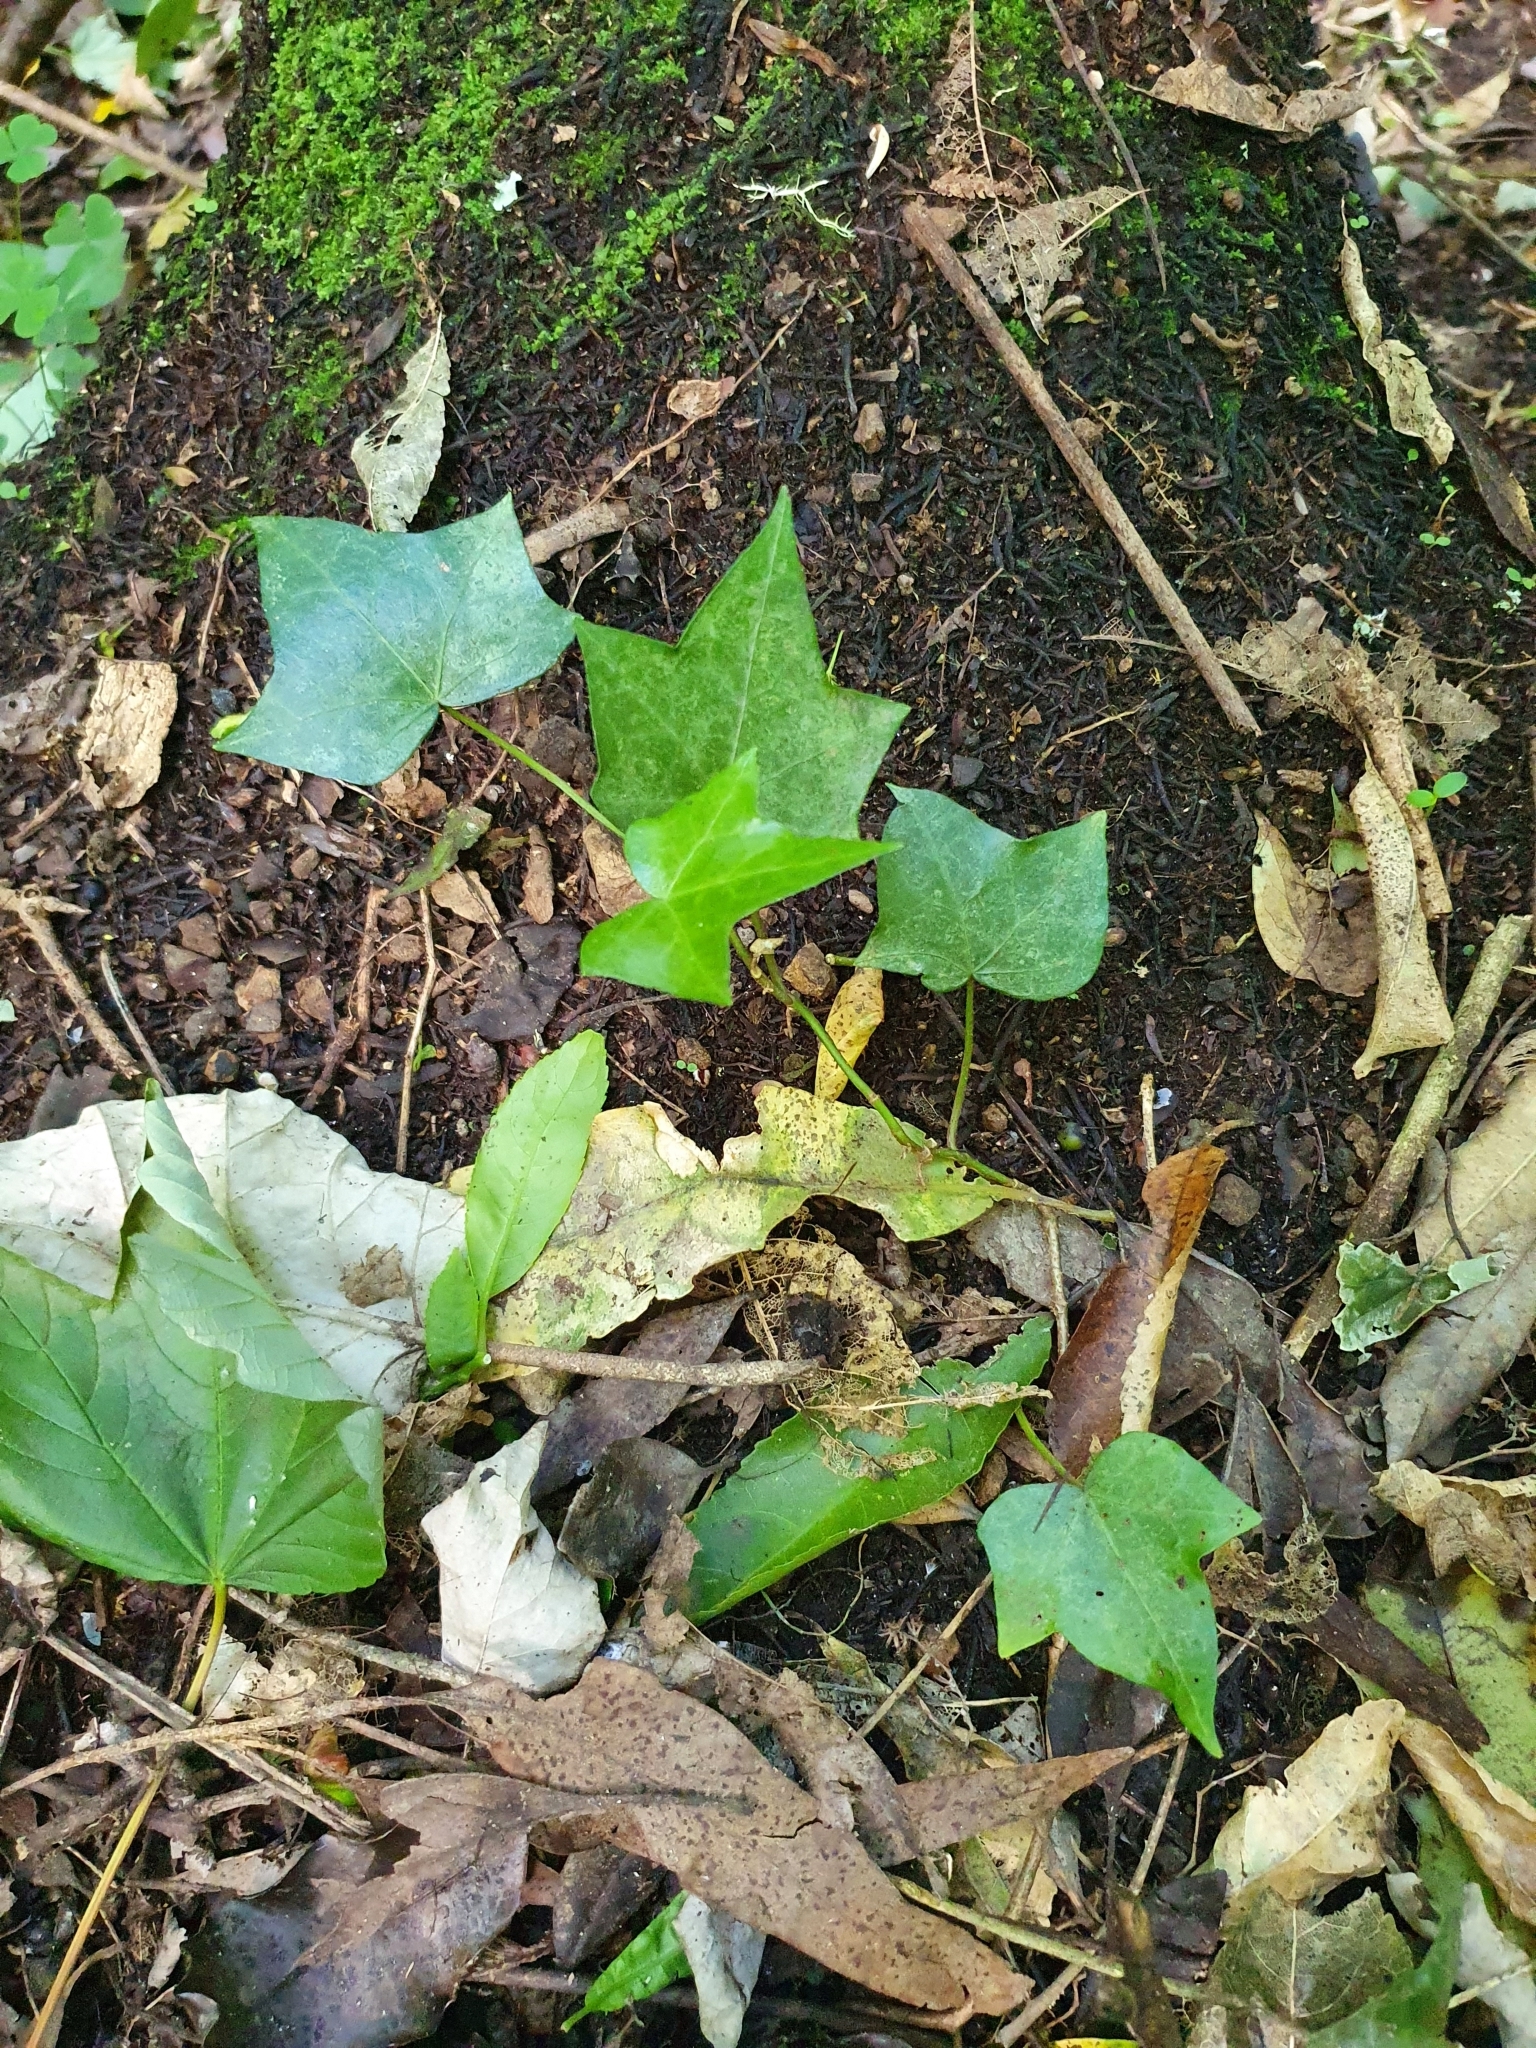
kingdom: Plantae
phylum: Tracheophyta
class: Magnoliopsida
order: Apiales
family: Araliaceae
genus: Hedera
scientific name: Hedera helix
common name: Ivy
